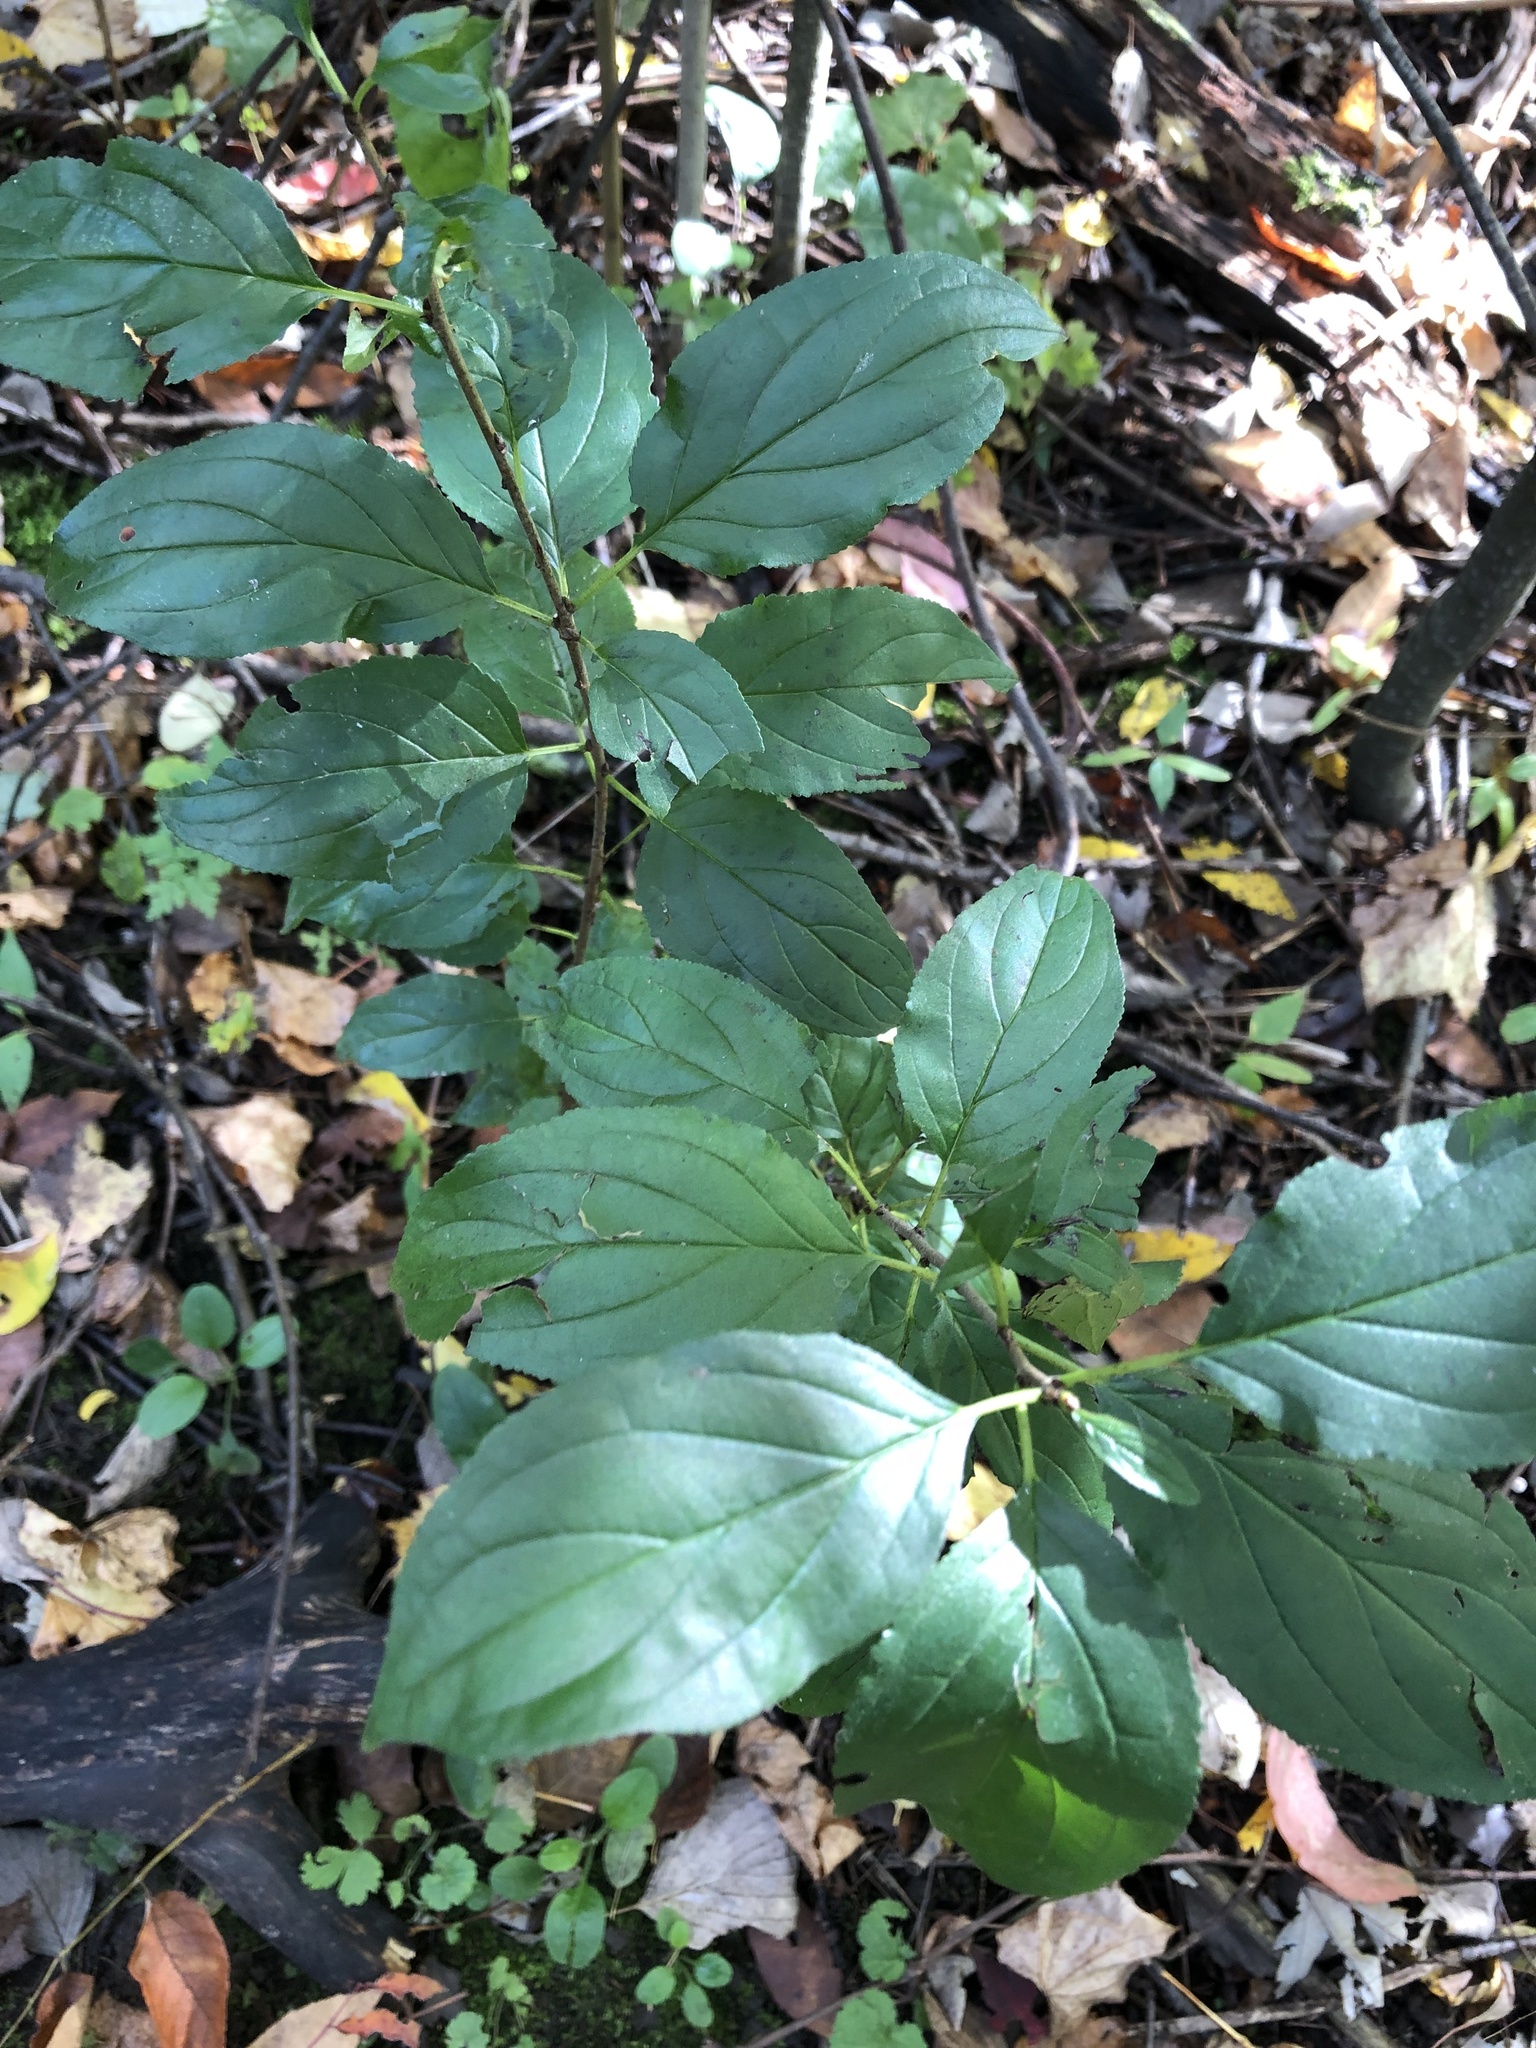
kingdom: Plantae
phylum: Tracheophyta
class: Magnoliopsida
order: Rosales
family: Rhamnaceae
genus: Rhamnus
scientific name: Rhamnus cathartica
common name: Common buckthorn
